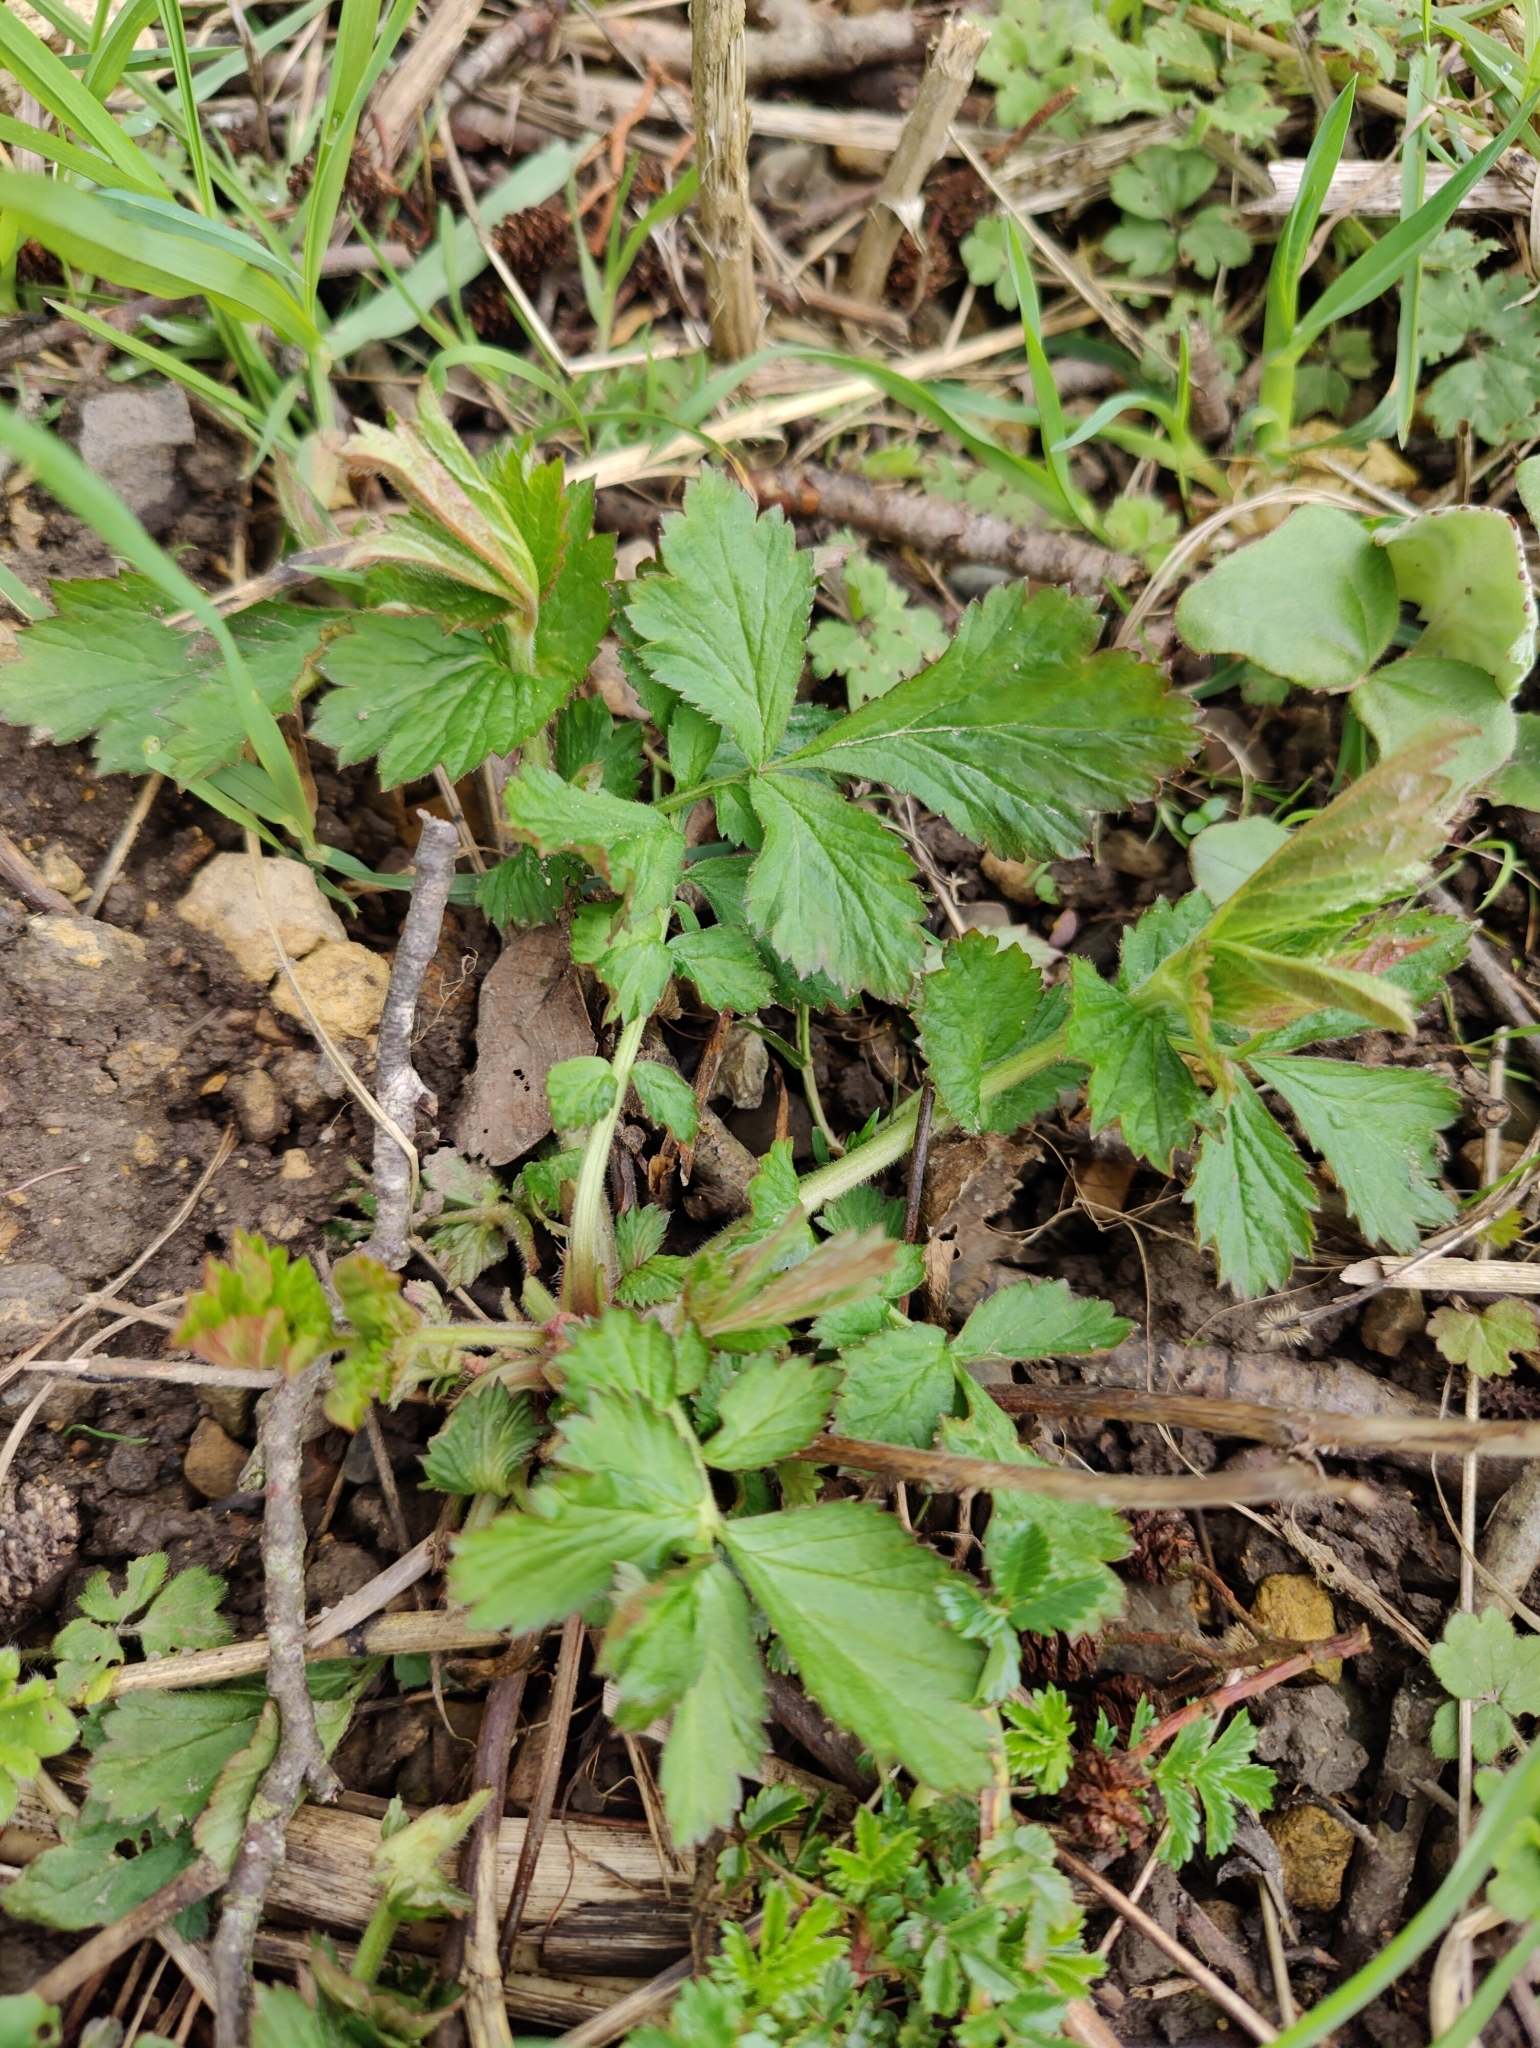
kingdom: Plantae
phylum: Tracheophyta
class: Magnoliopsida
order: Rosales
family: Rosaceae
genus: Geum
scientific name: Geum urbanum
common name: Wood avens
